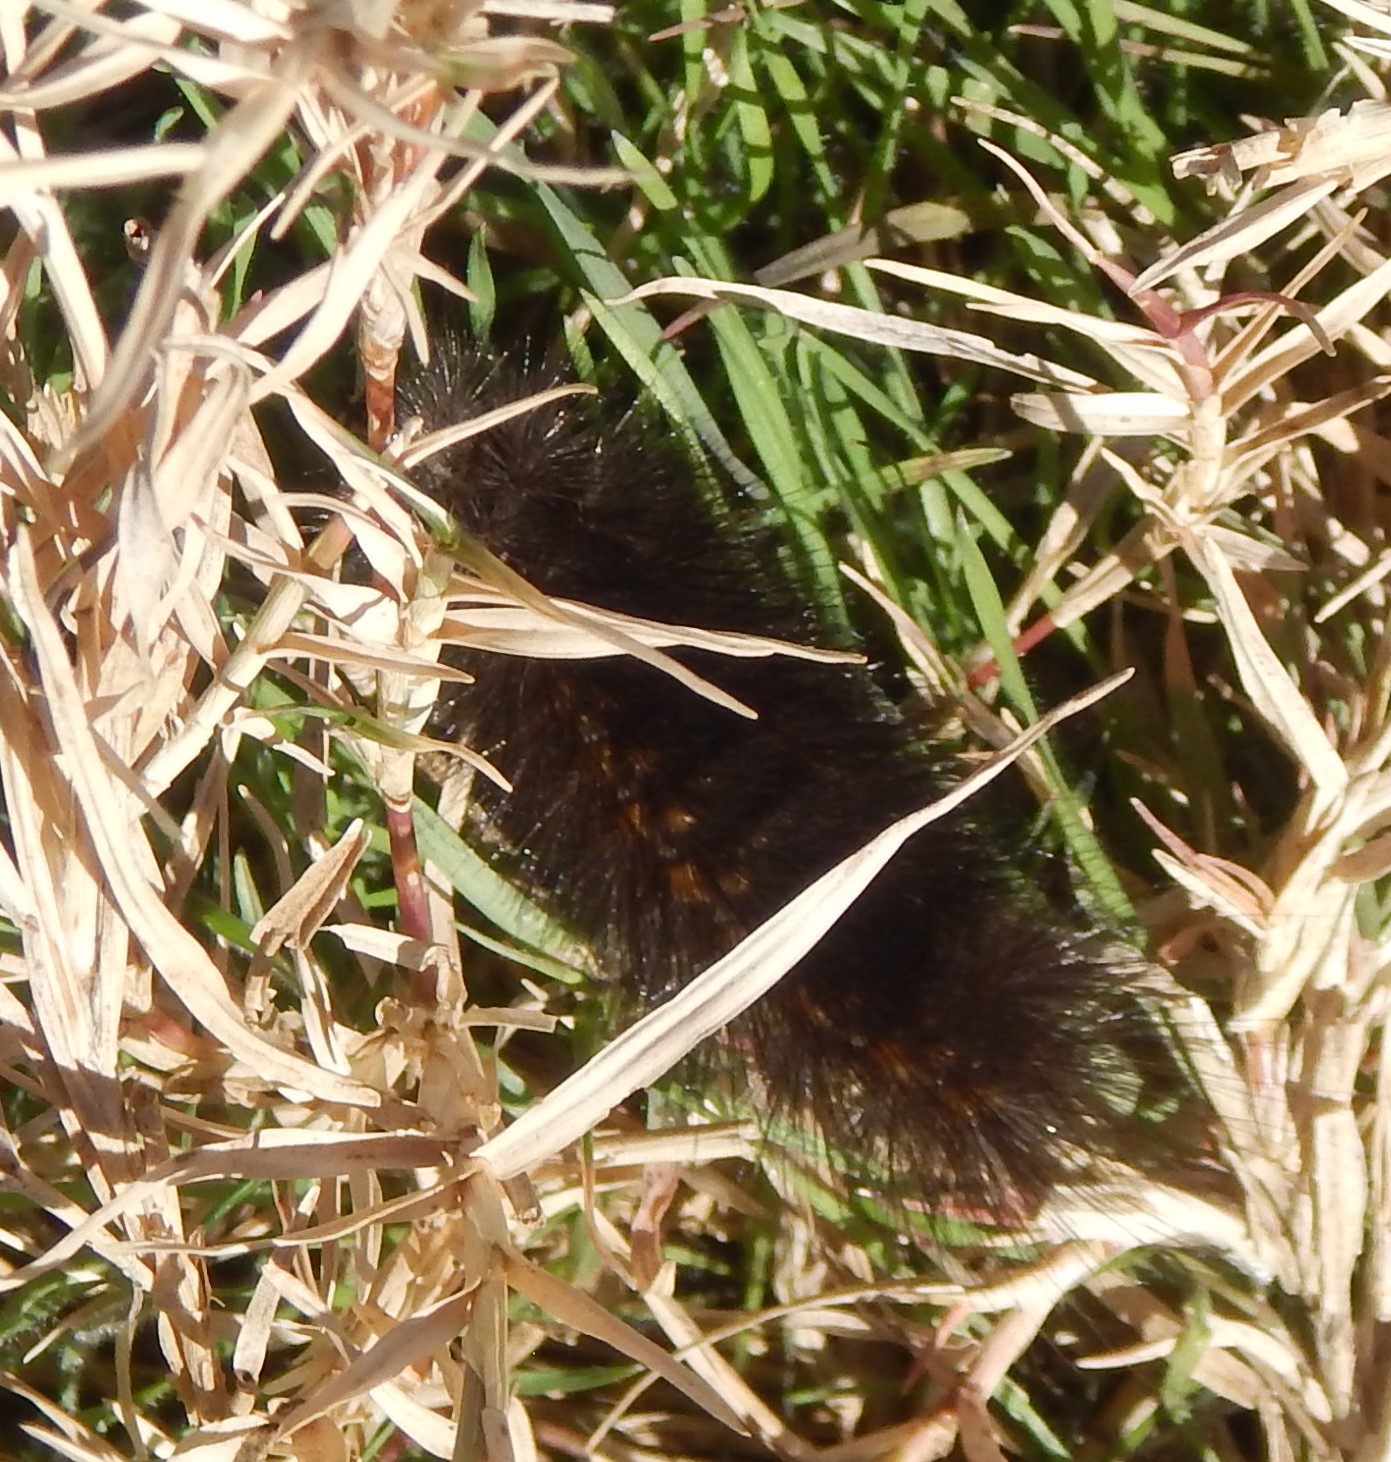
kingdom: Animalia
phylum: Arthropoda
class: Insecta
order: Lepidoptera
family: Erebidae
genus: Estigmene
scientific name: Estigmene acrea
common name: Salt marsh moth
